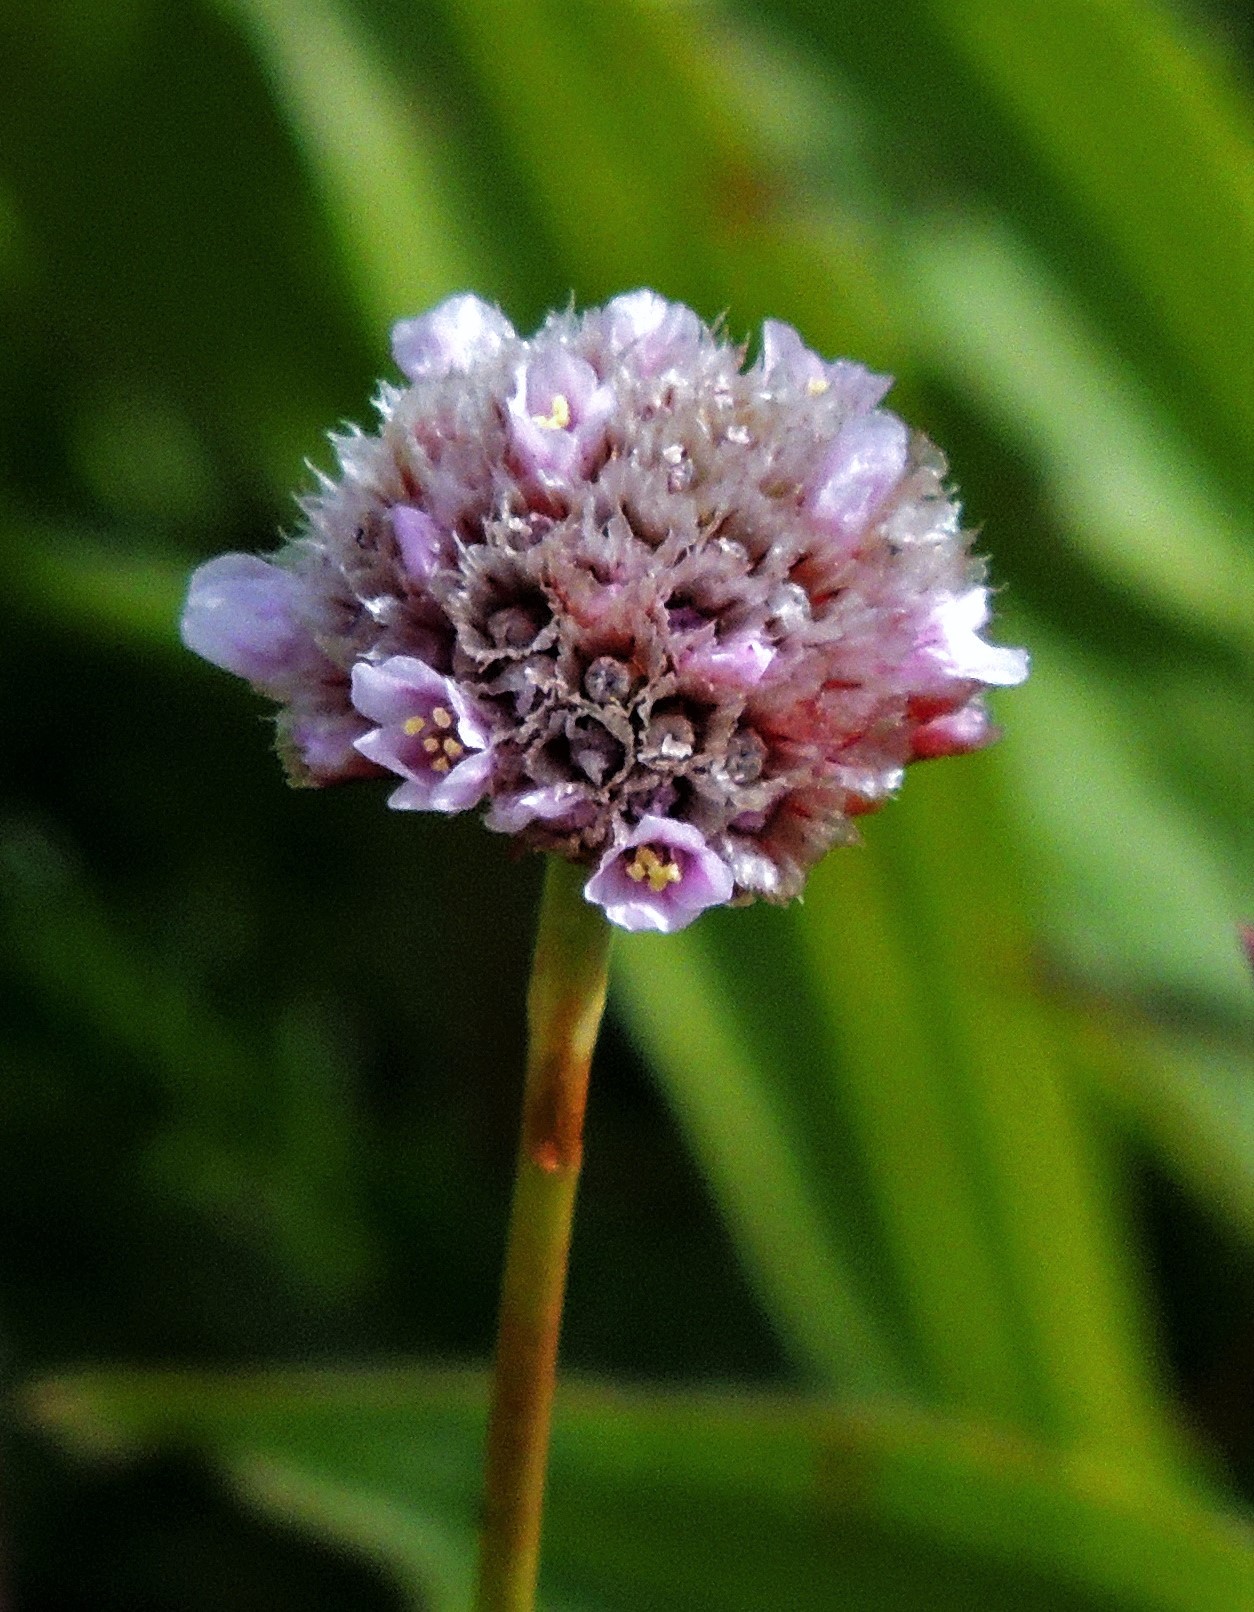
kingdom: Plantae
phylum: Tracheophyta
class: Magnoliopsida
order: Caryophyllales
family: Plumbaginaceae
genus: Armeria
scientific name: Armeria curvifolia
